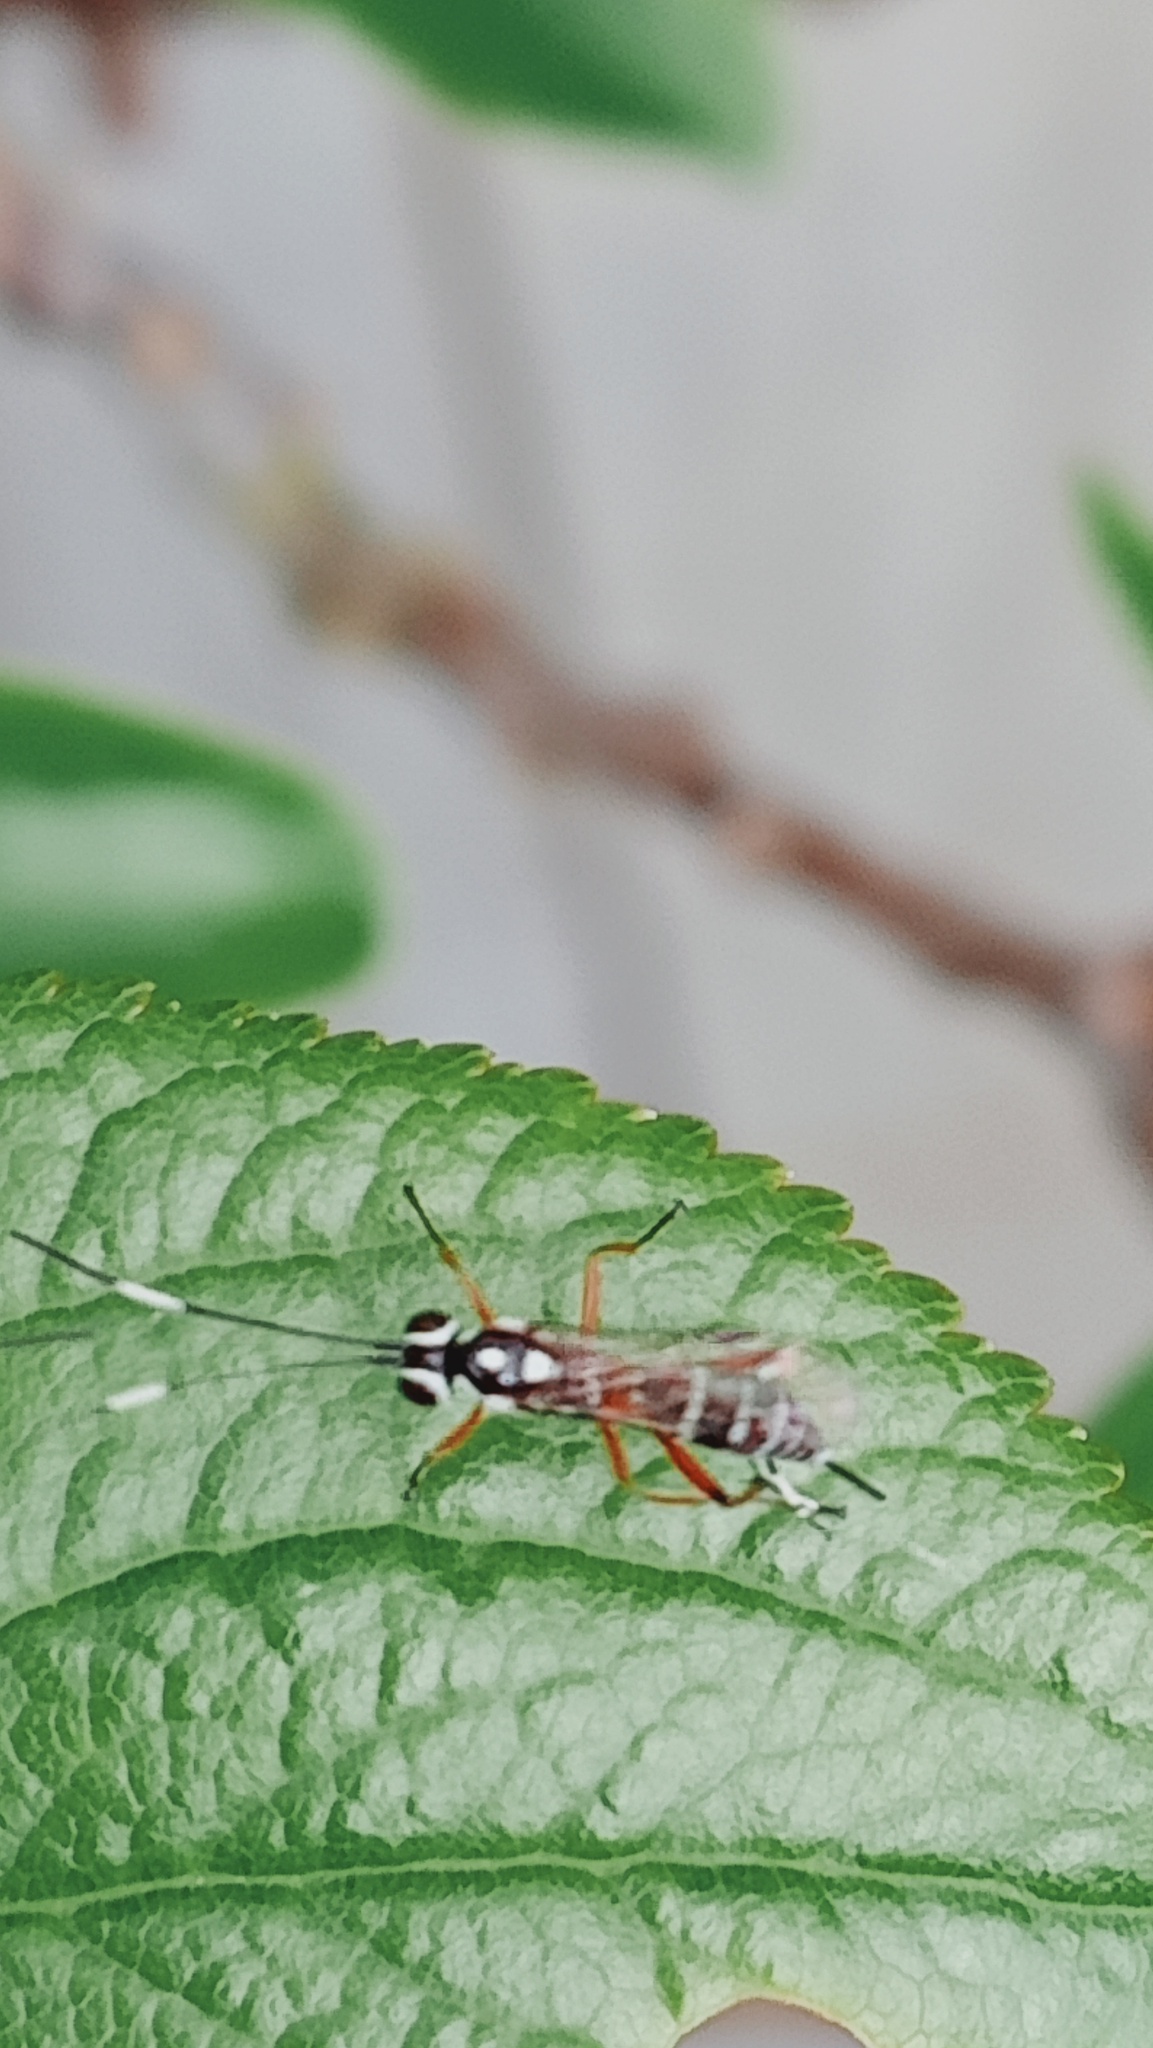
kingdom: Animalia
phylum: Arthropoda
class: Insecta
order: Hymenoptera
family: Ichneumonidae
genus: Glabridorsum
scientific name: Glabridorsum stokesii
